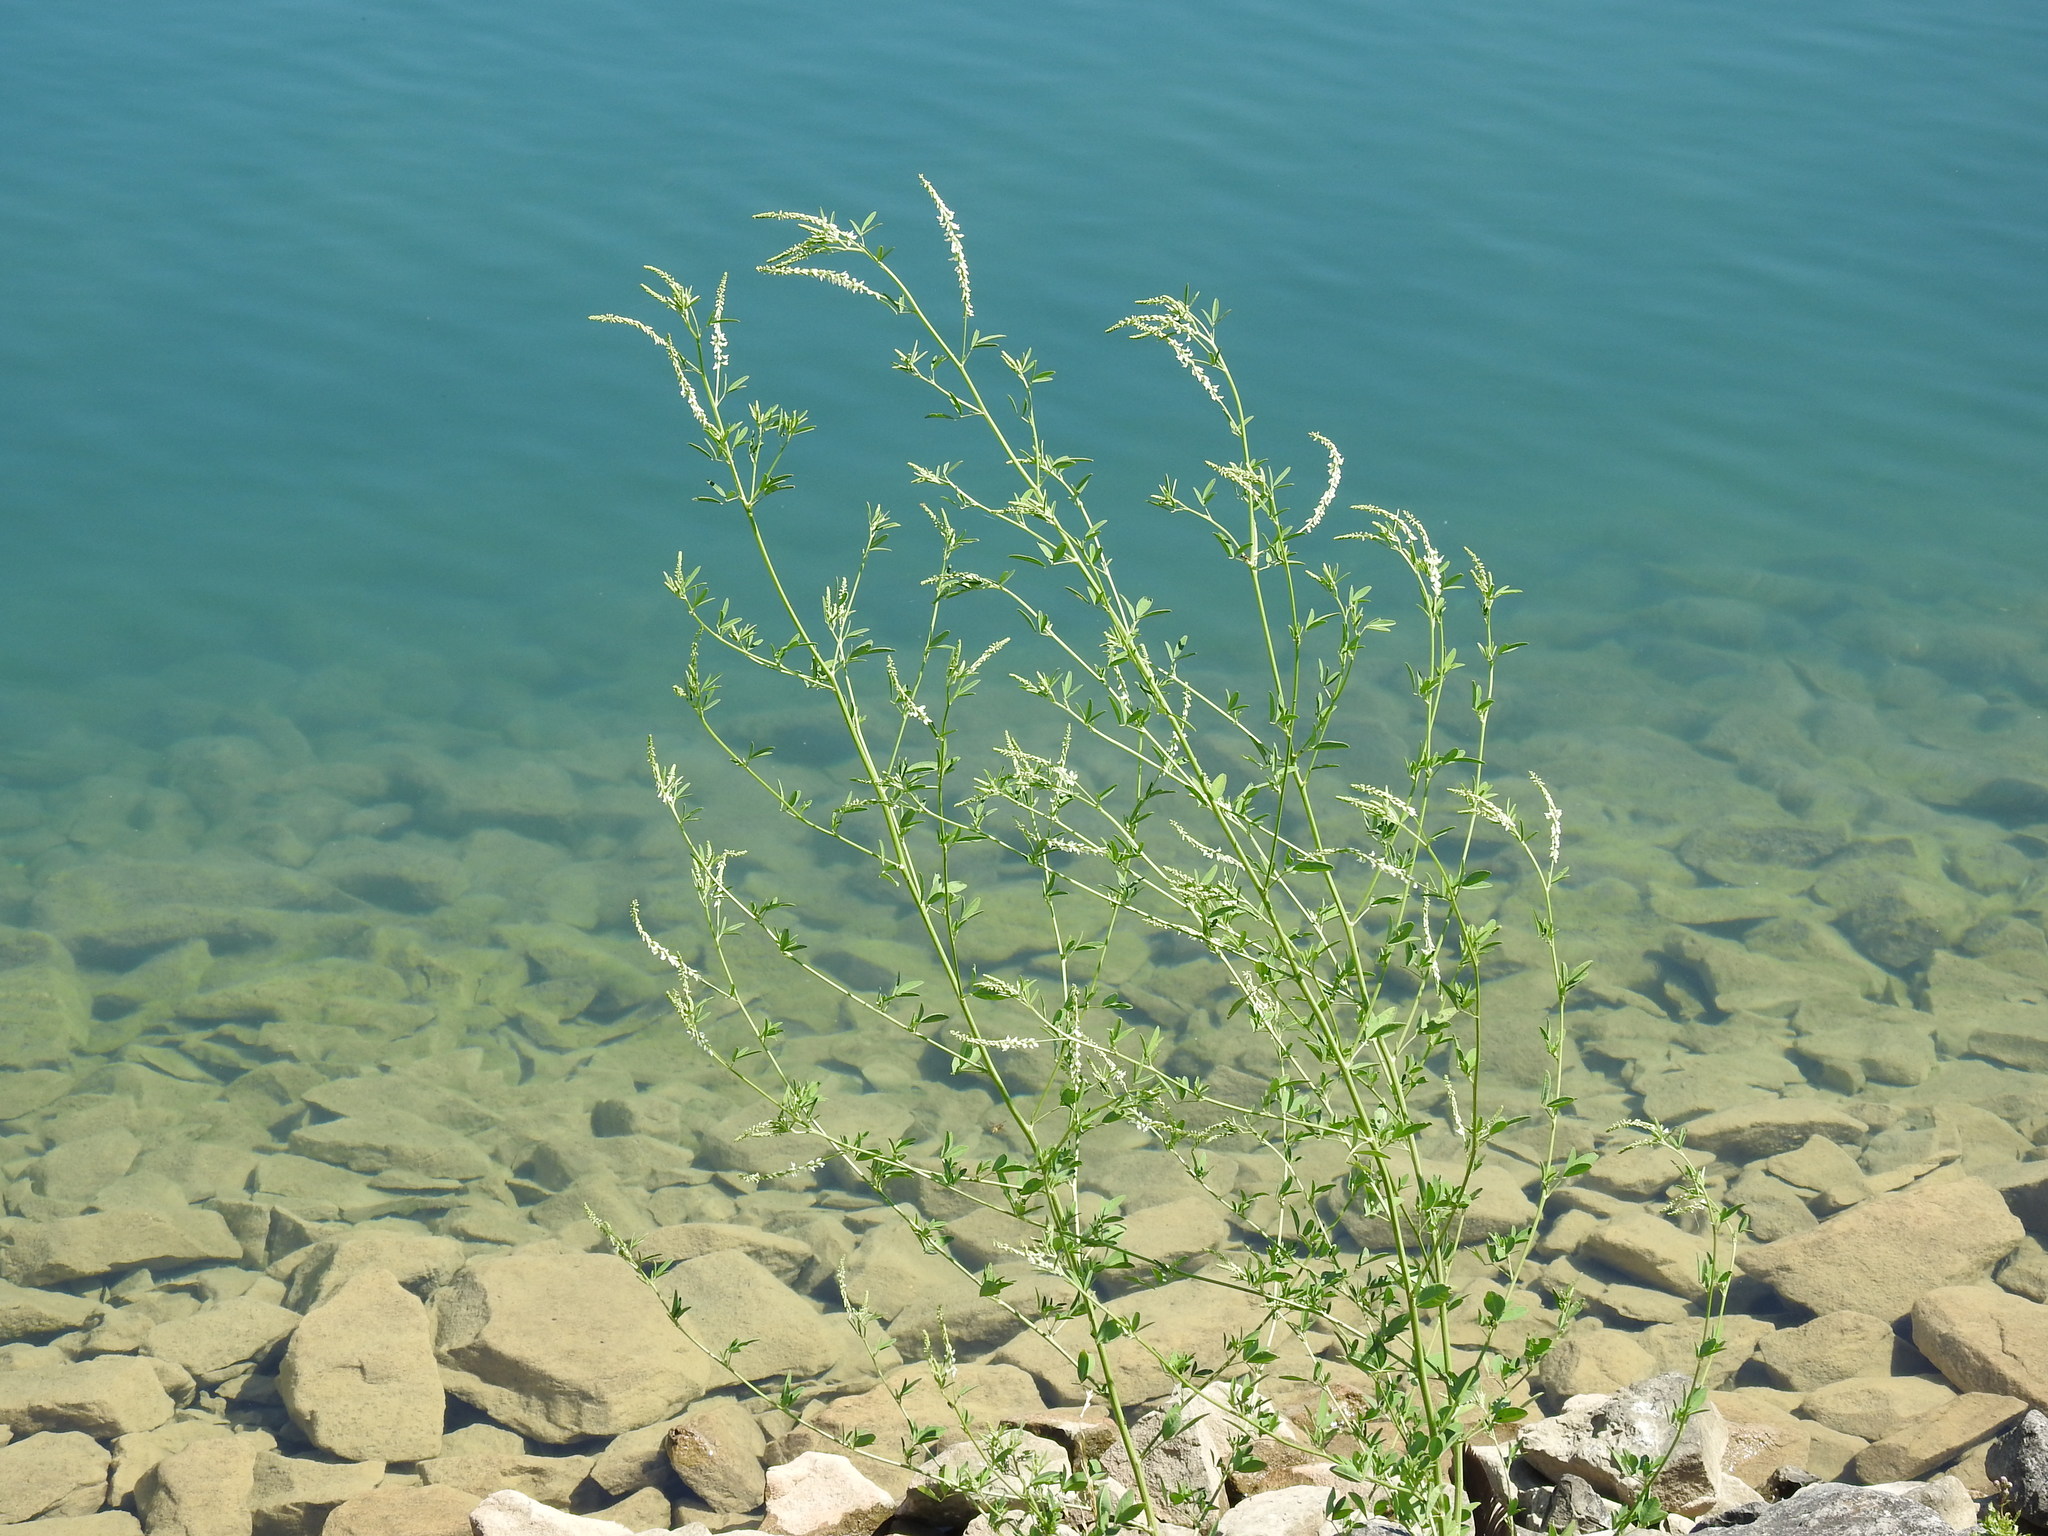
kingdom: Plantae
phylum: Tracheophyta
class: Magnoliopsida
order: Fabales
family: Fabaceae
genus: Melilotus
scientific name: Melilotus albus
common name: White melilot
